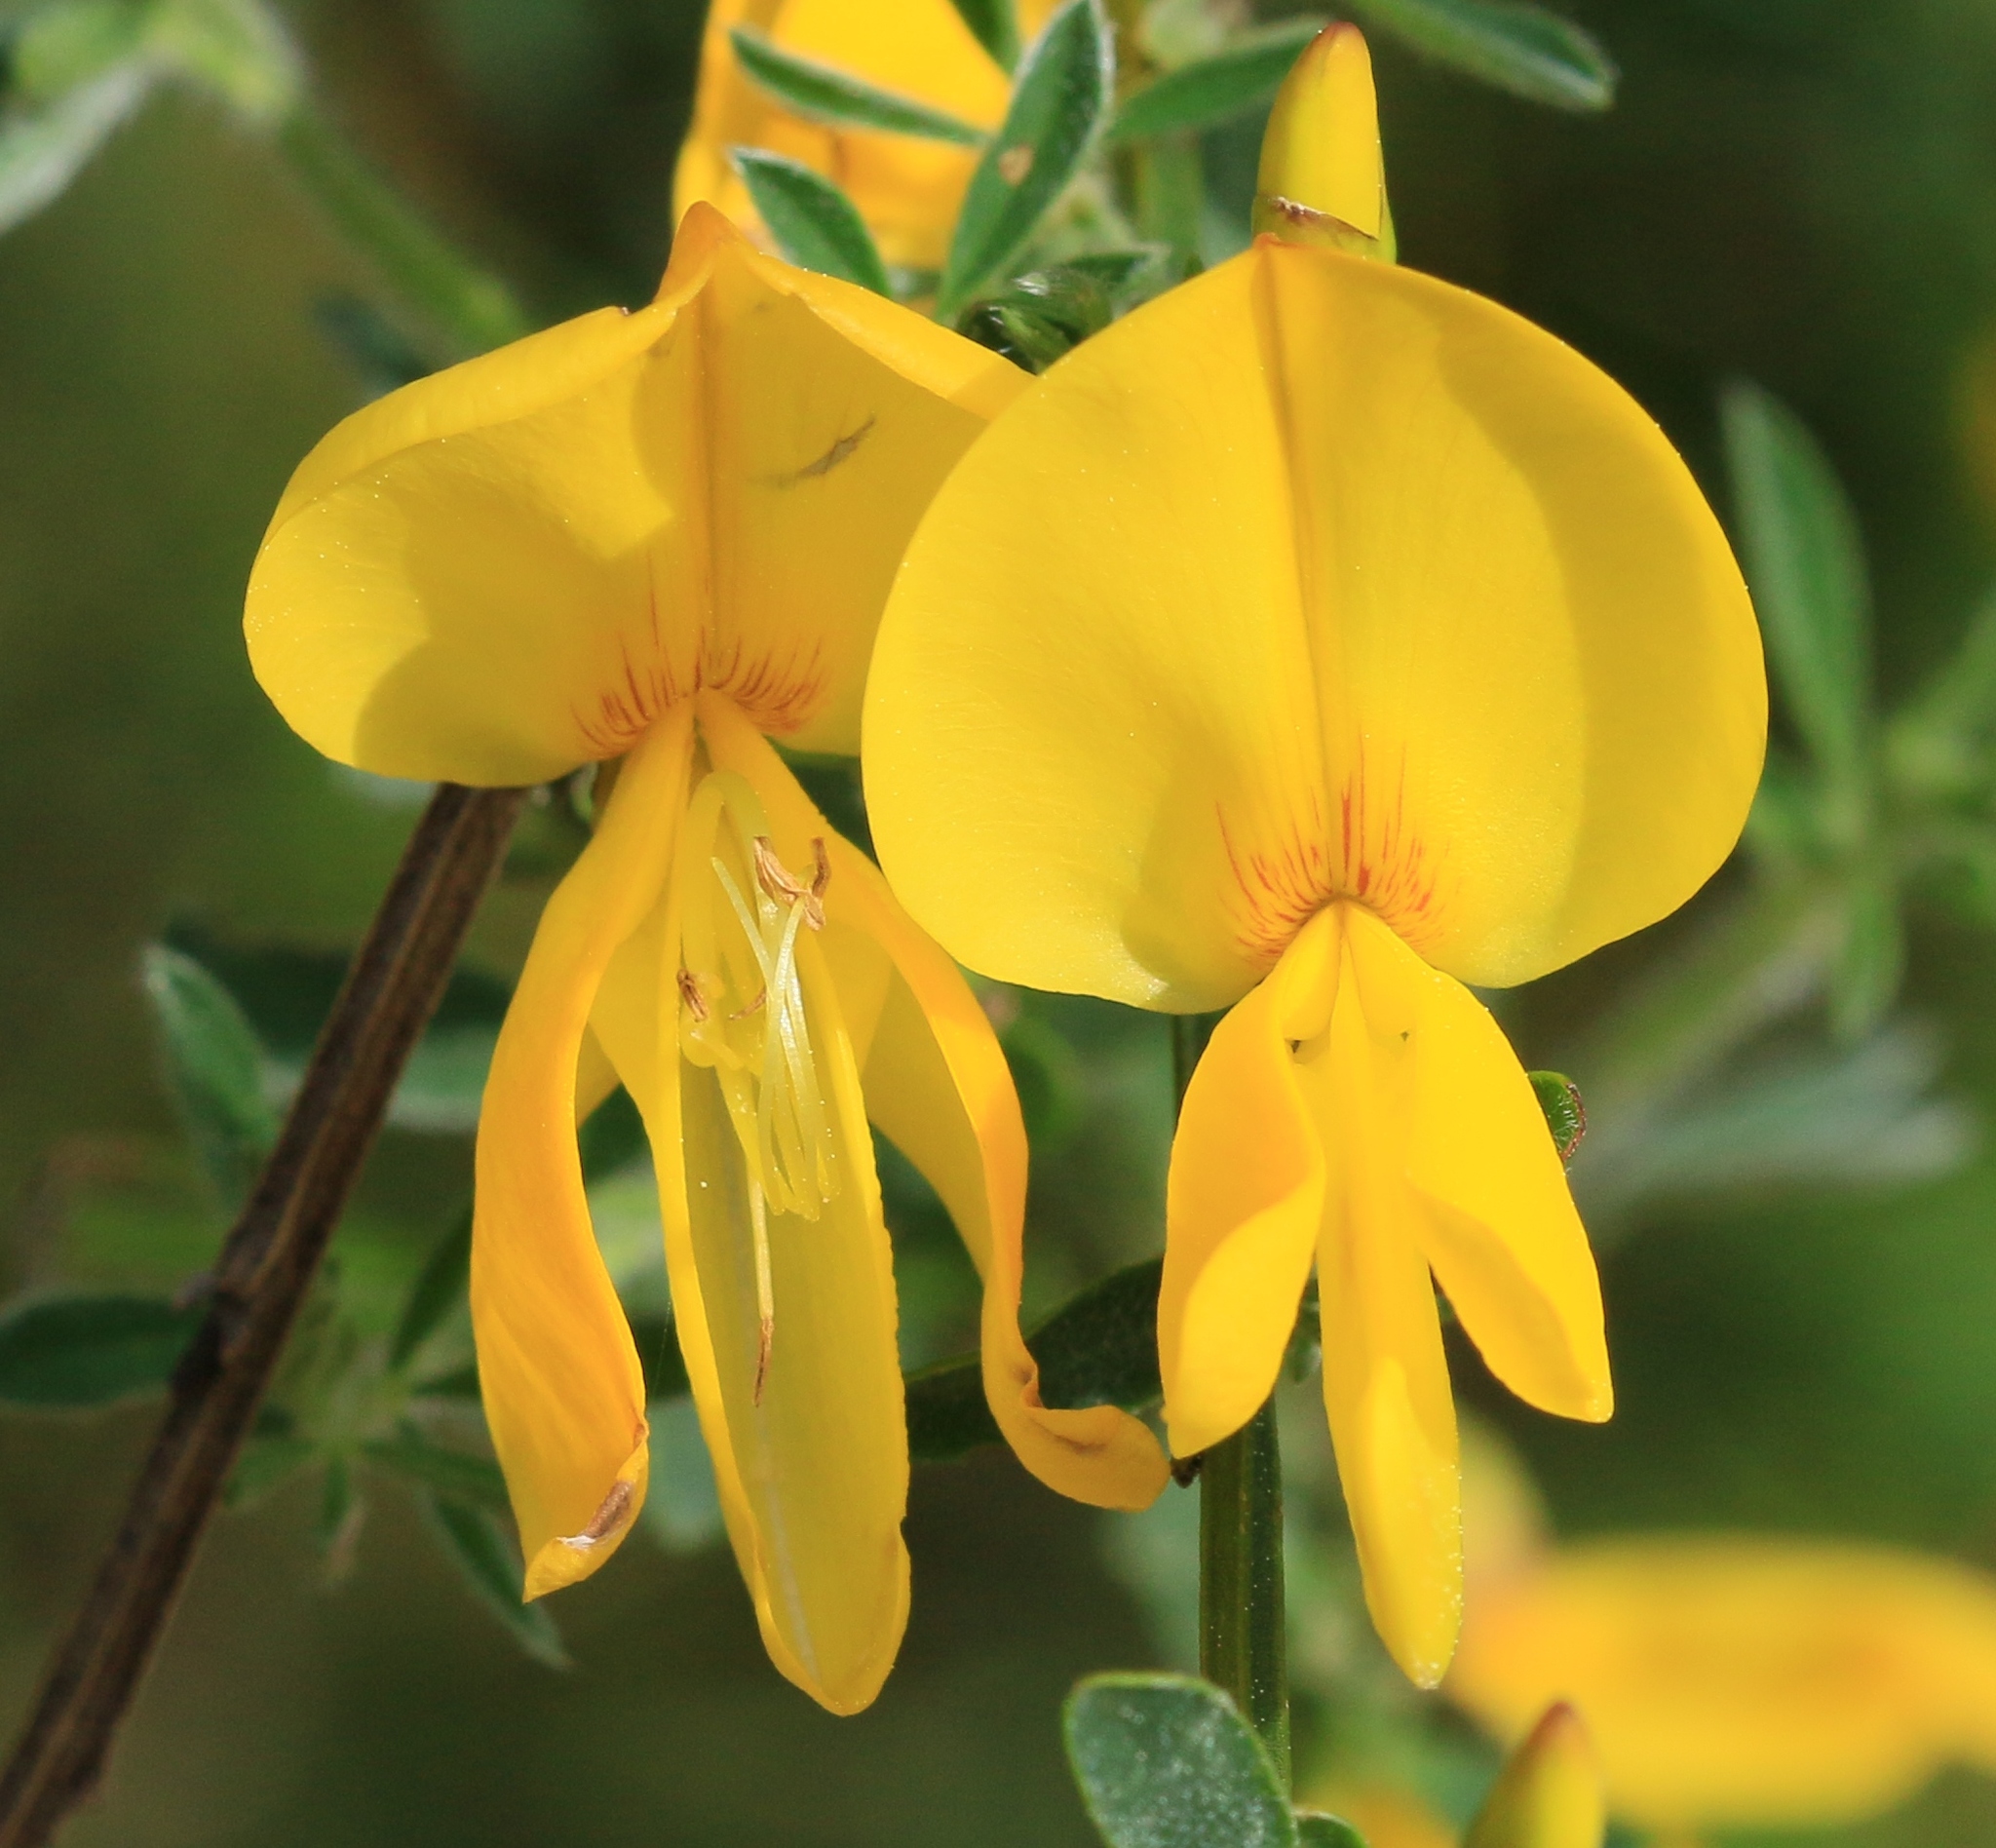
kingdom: Plantae
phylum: Tracheophyta
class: Magnoliopsida
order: Fabales
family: Fabaceae
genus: Cytisus
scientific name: Cytisus scoparius
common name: Scotch broom
